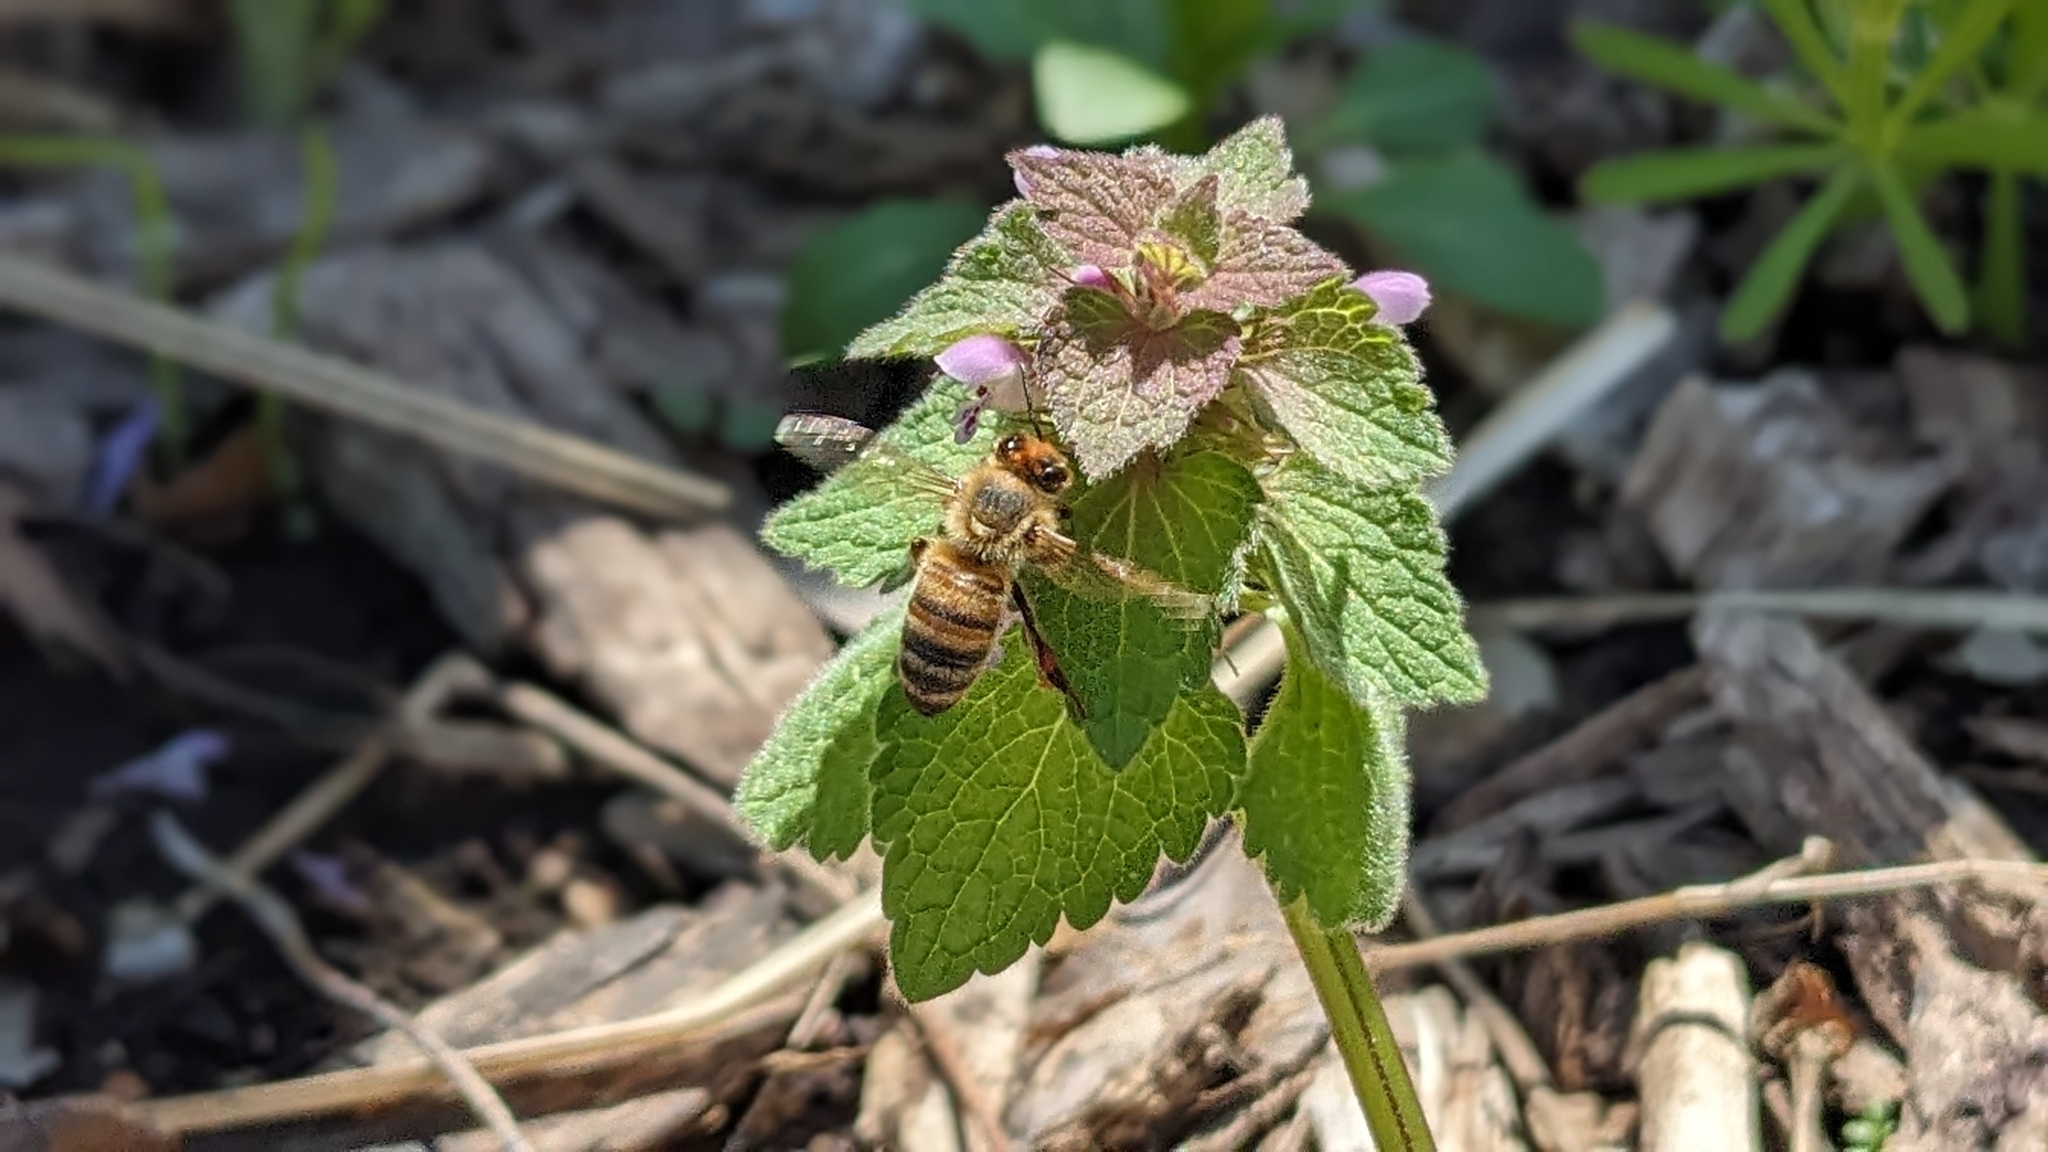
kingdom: Plantae
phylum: Tracheophyta
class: Magnoliopsida
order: Lamiales
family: Lamiaceae
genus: Lamium
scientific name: Lamium purpureum
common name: Red dead-nettle
